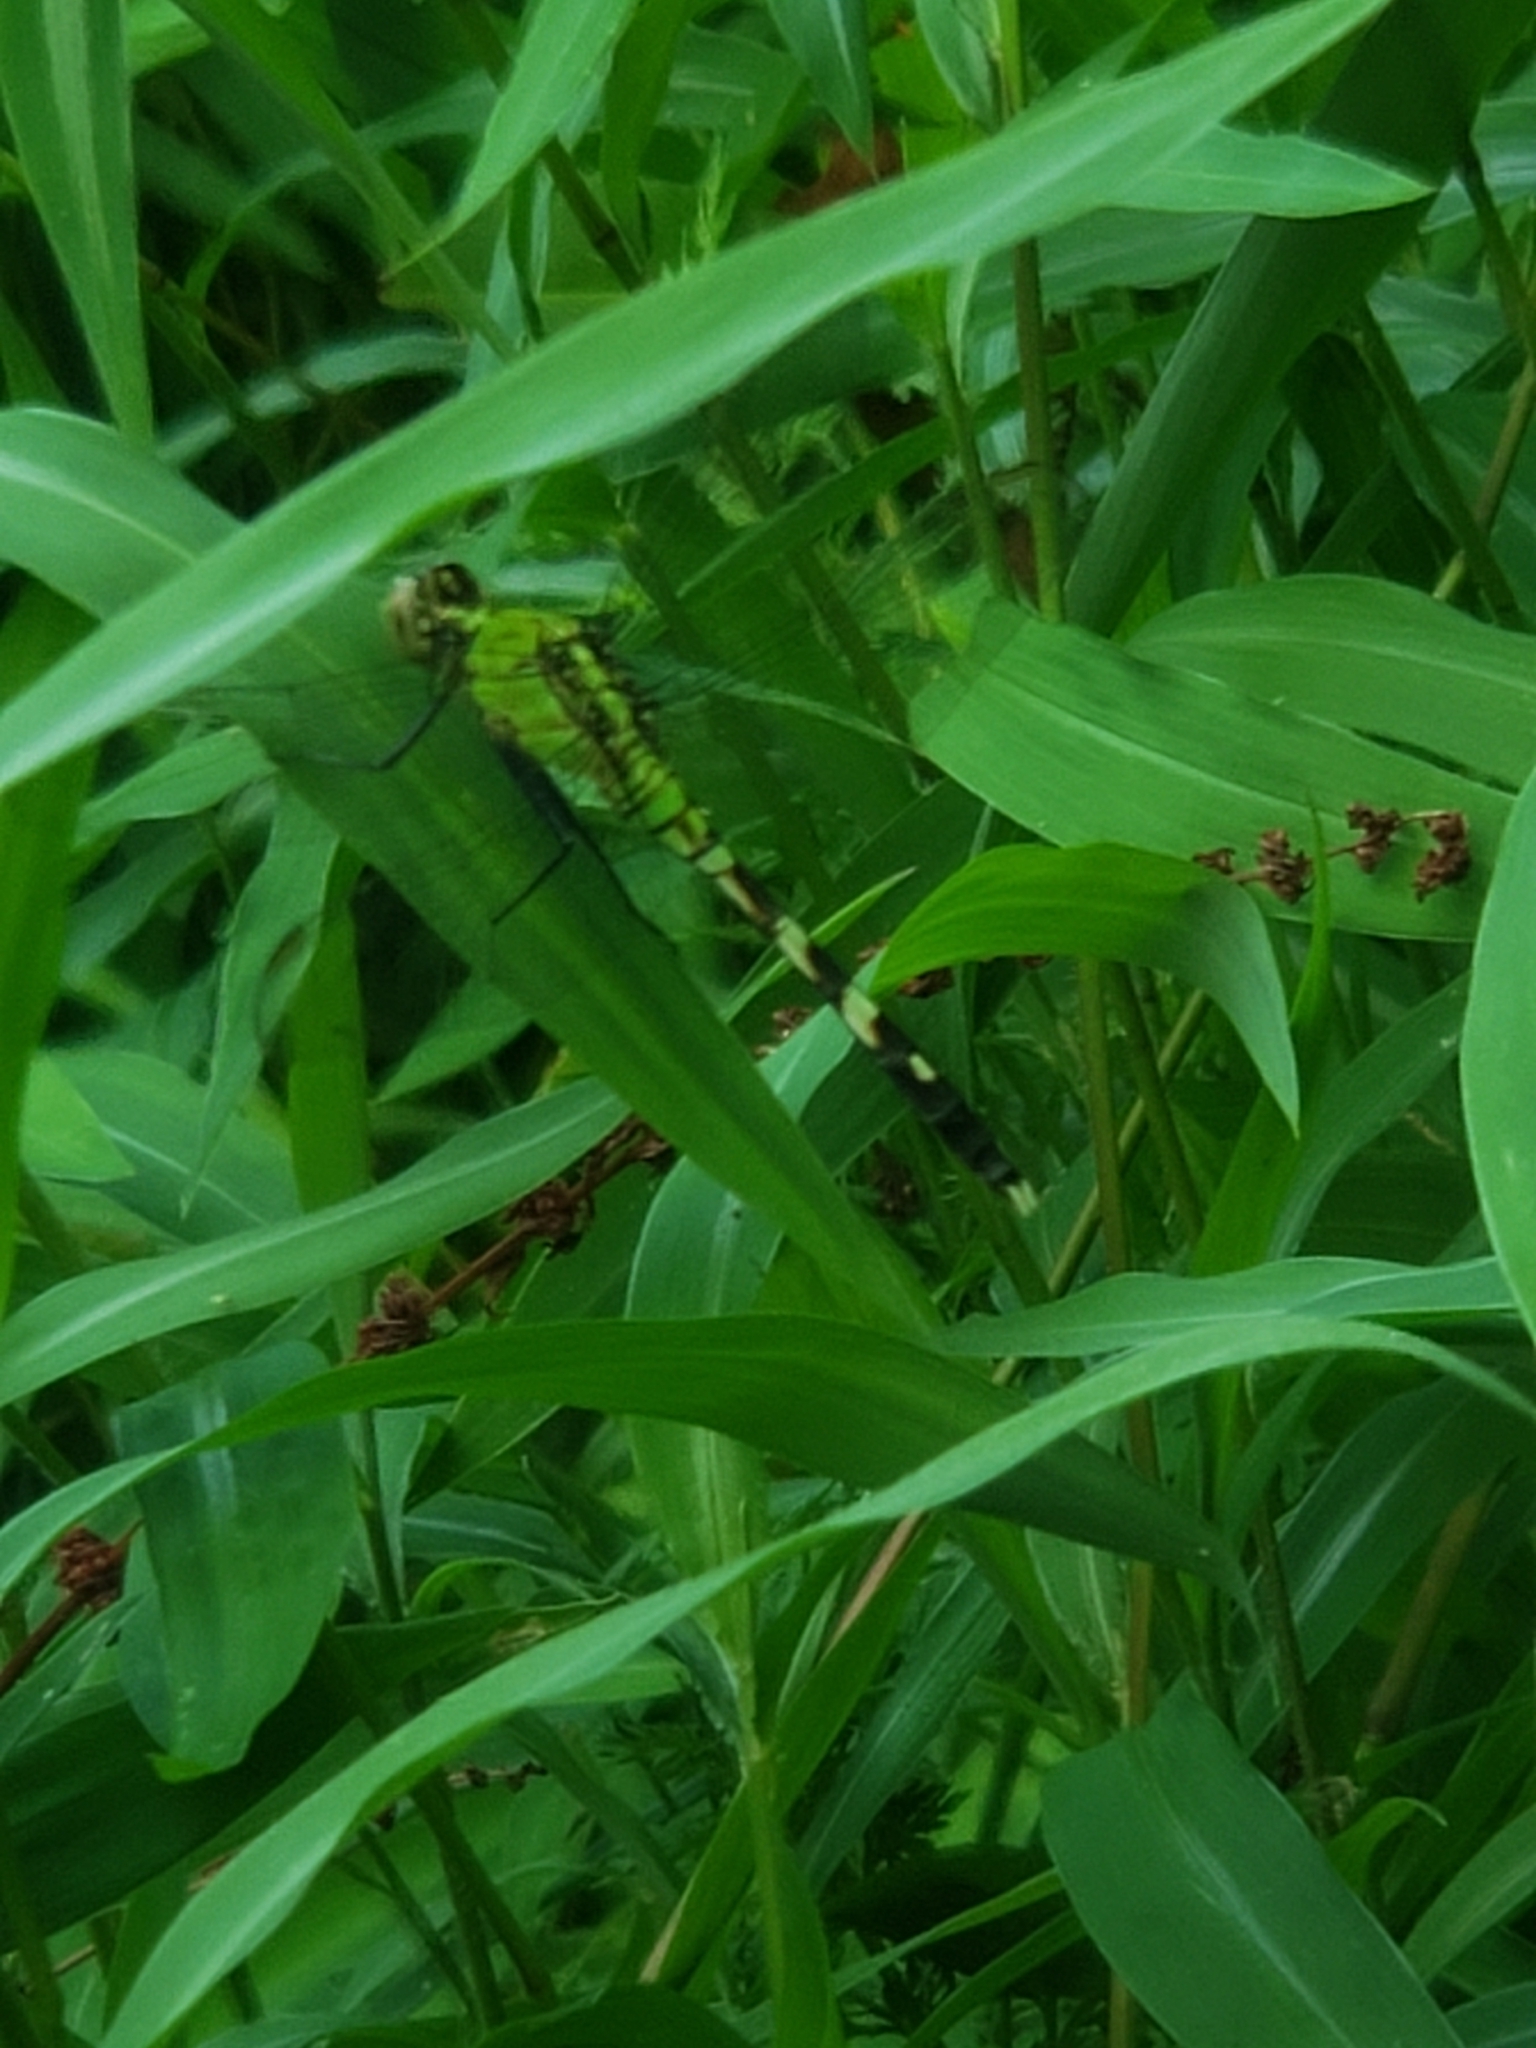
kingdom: Animalia
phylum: Arthropoda
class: Insecta
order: Odonata
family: Libellulidae
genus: Erythemis
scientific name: Erythemis simplicicollis
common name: Eastern pondhawk
